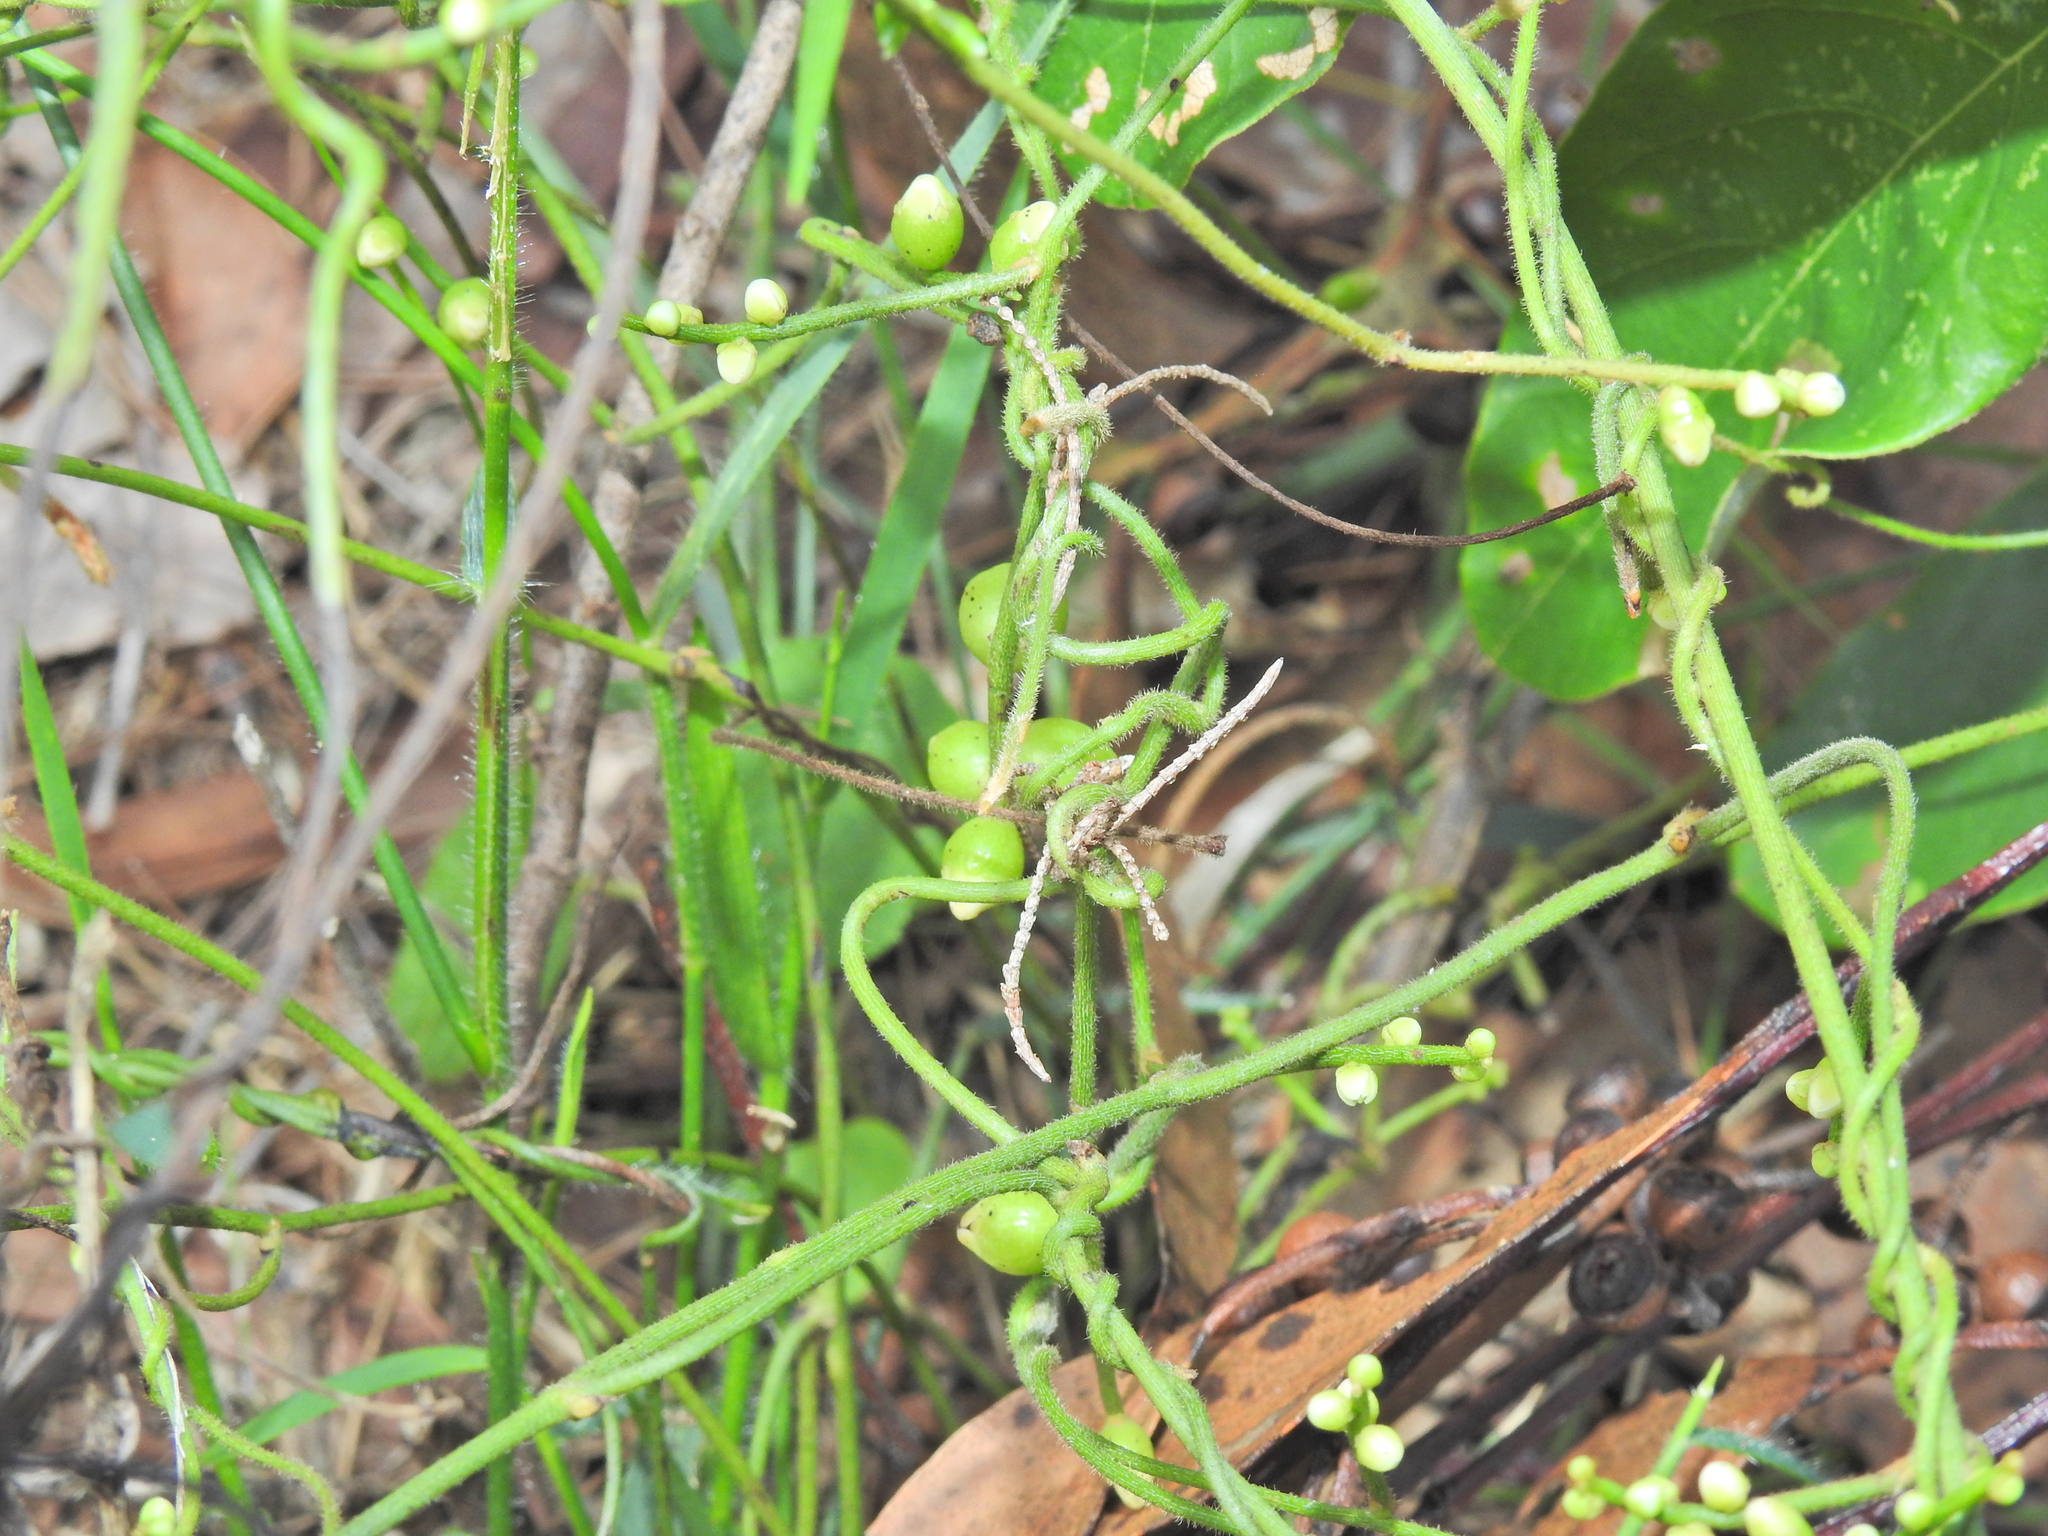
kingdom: Plantae
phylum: Tracheophyta
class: Magnoliopsida
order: Laurales
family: Lauraceae
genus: Cassytha
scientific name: Cassytha filiformis
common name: Dodder-laurel
